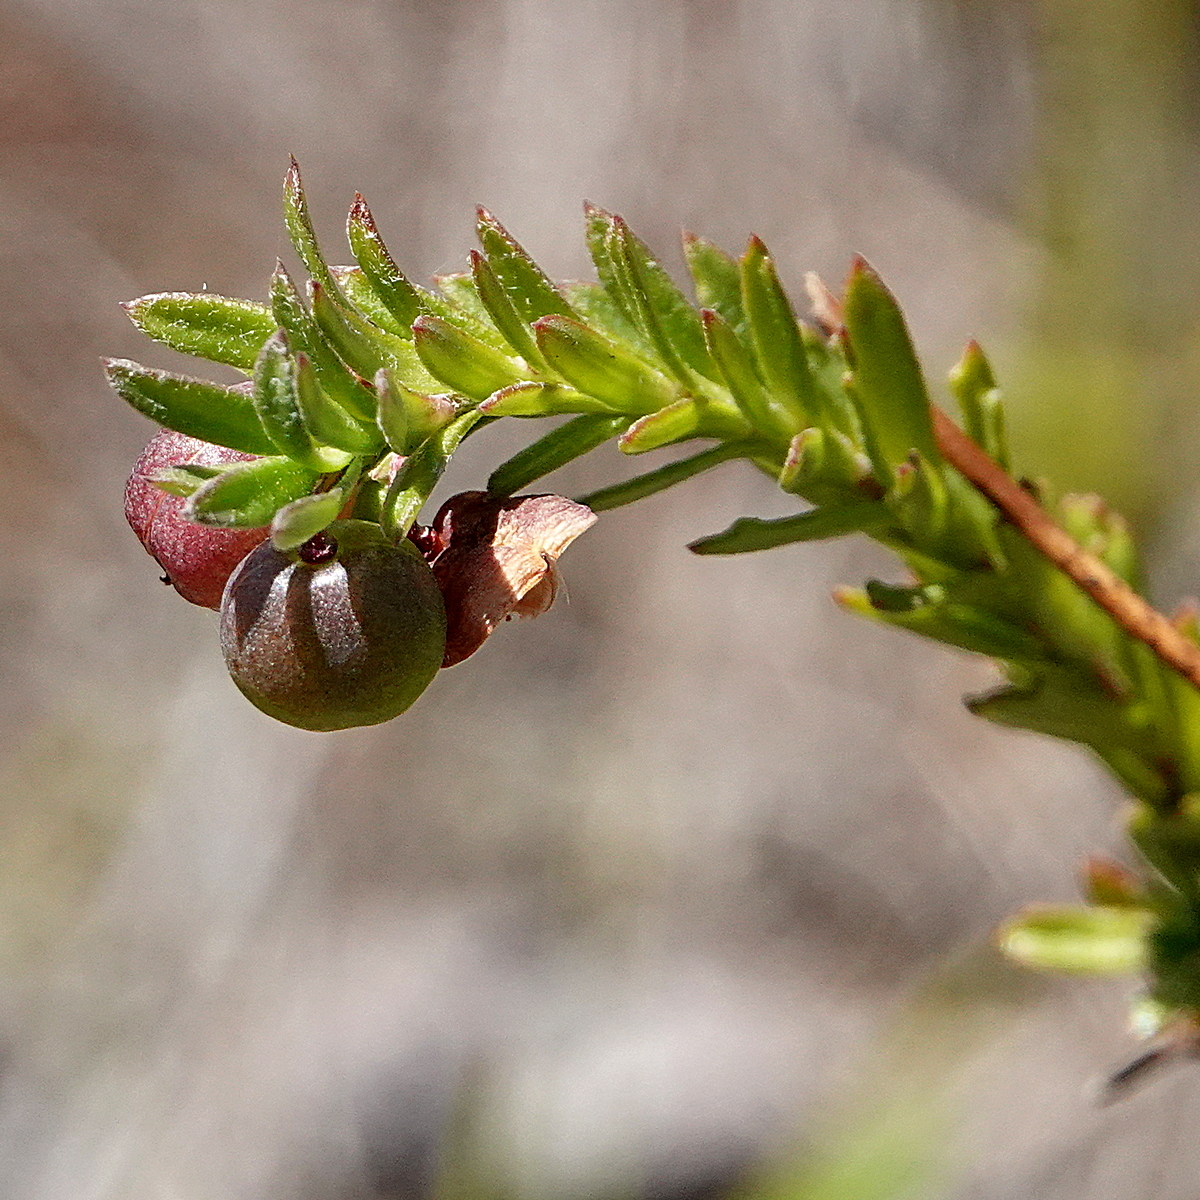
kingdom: Plantae
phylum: Tracheophyta
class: Magnoliopsida
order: Apiales
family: Pittosporaceae
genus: Rhytidosporum
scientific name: Rhytidosporum procumbens
